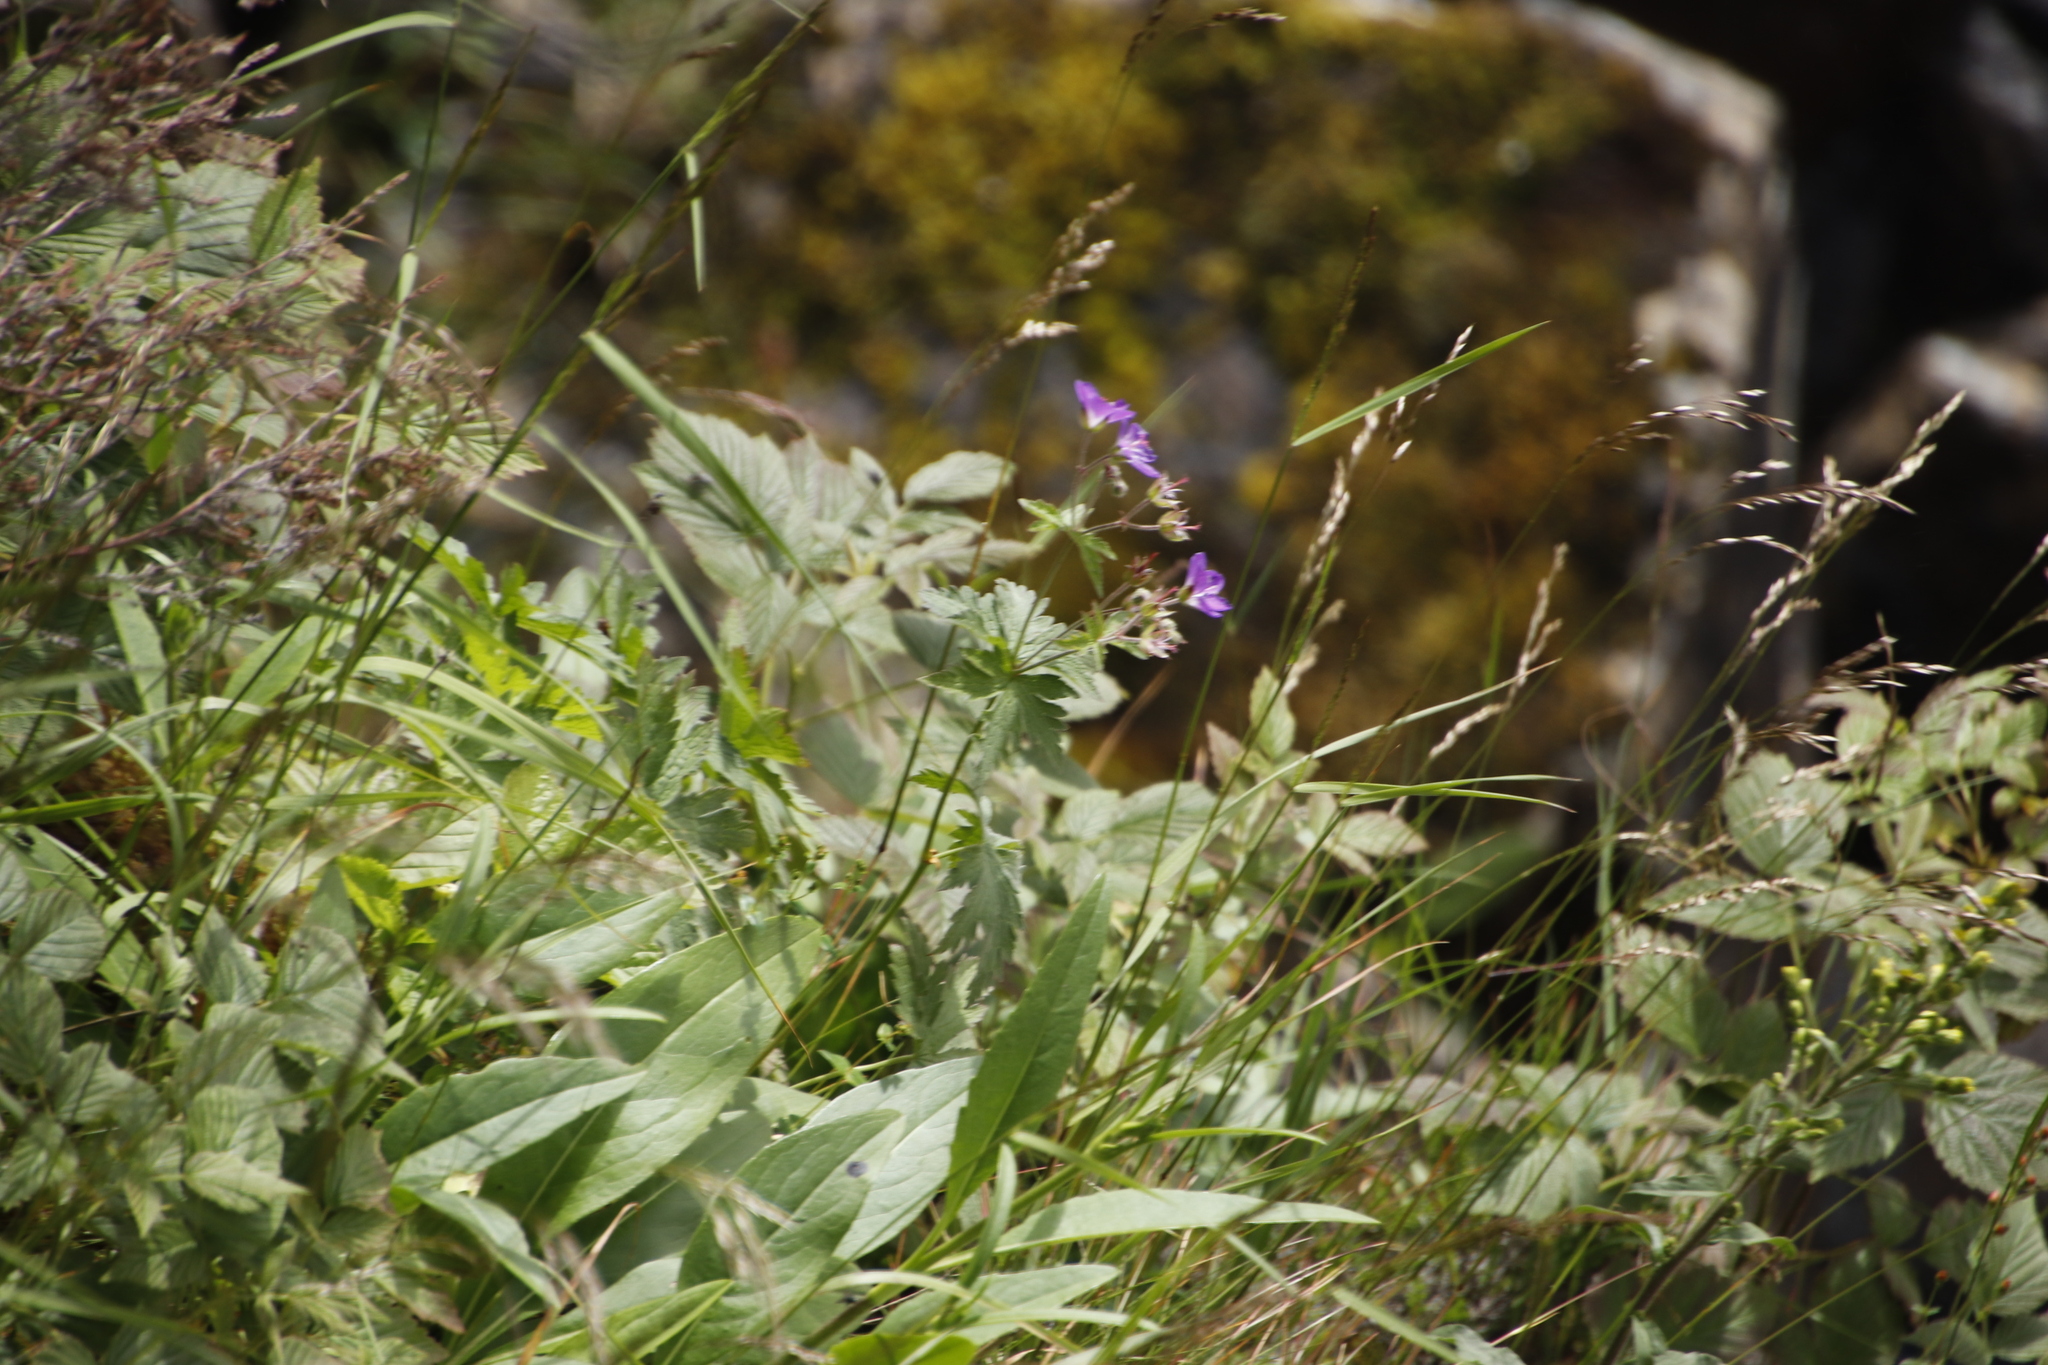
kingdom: Plantae
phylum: Tracheophyta
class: Magnoliopsida
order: Geraniales
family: Geraniaceae
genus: Geranium
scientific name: Geranium sylvaticum
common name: Wood crane's-bill
